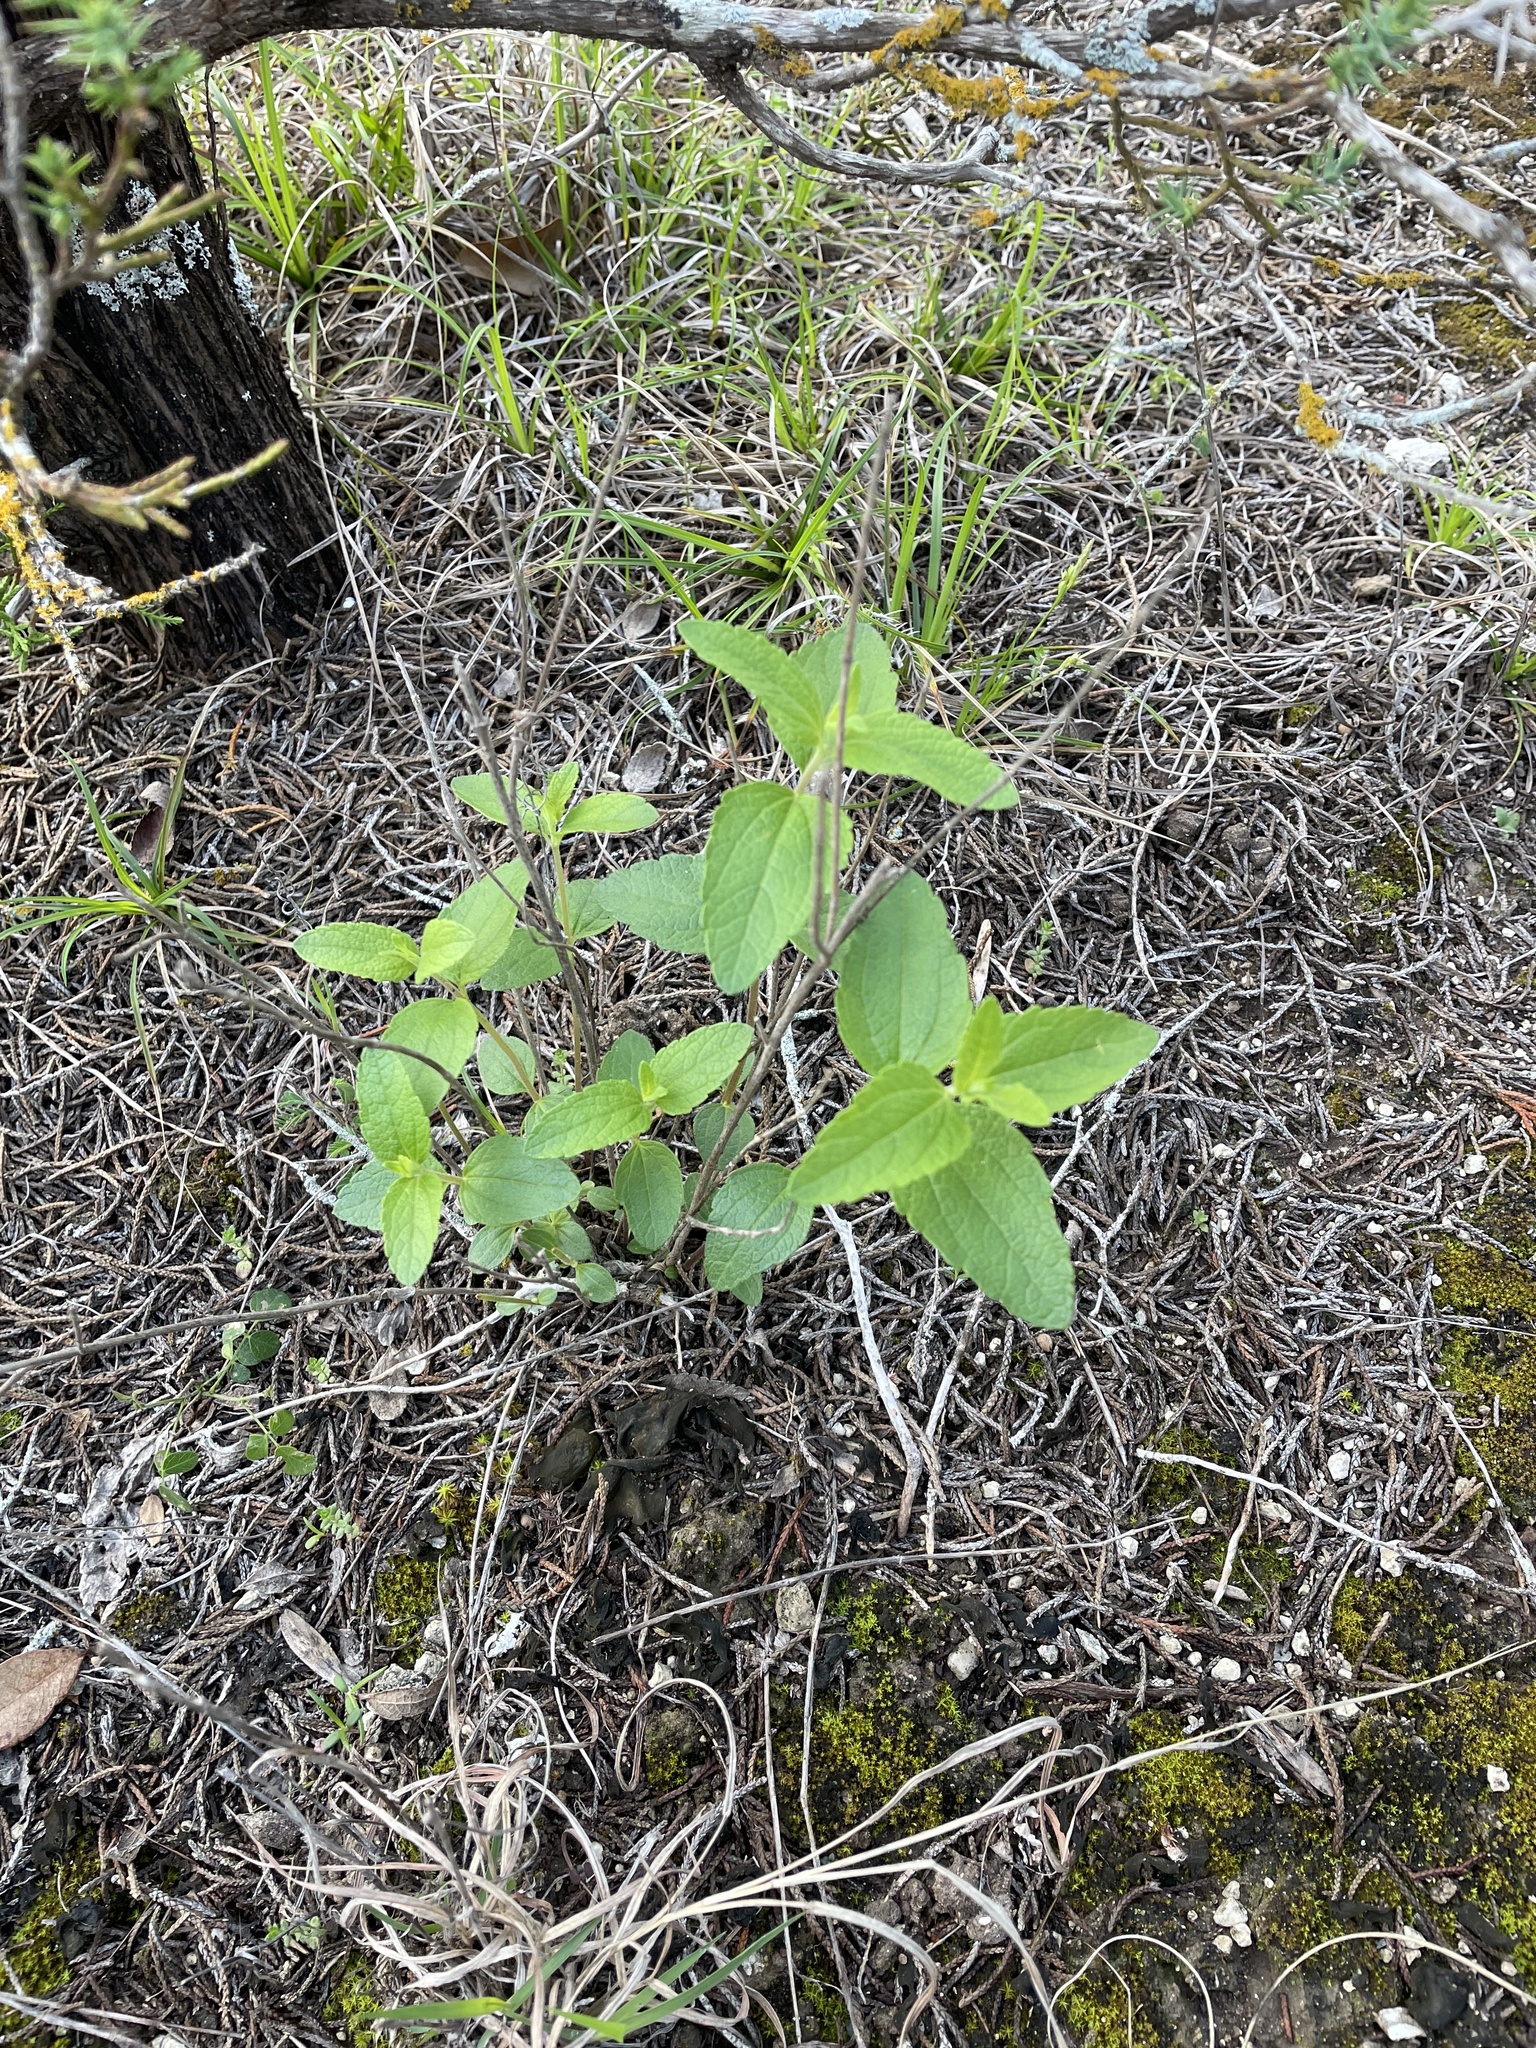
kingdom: Plantae
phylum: Tracheophyta
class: Magnoliopsida
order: Asterales
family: Asteraceae
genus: Brickellia
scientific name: Brickellia cylindracea
